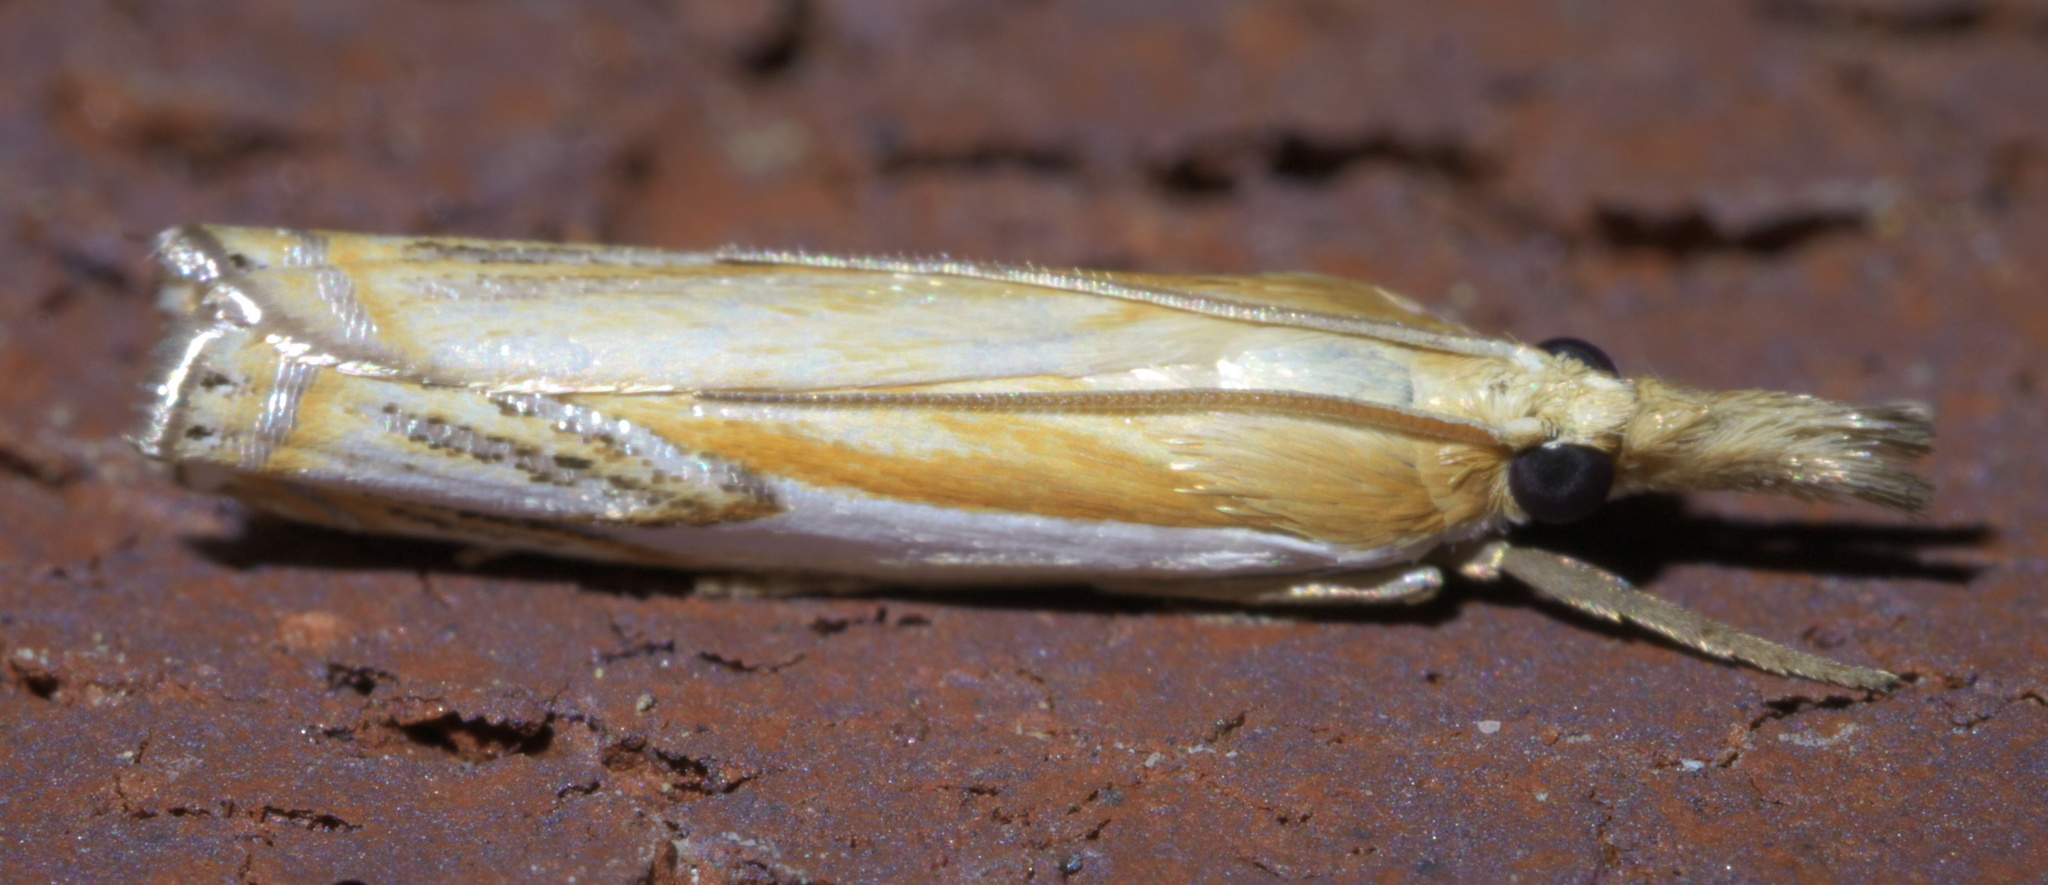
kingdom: Animalia
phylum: Arthropoda
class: Insecta
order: Lepidoptera
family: Crambidae
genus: Crambus
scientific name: Crambus agitatellus
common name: Double-banded grass-veneer
